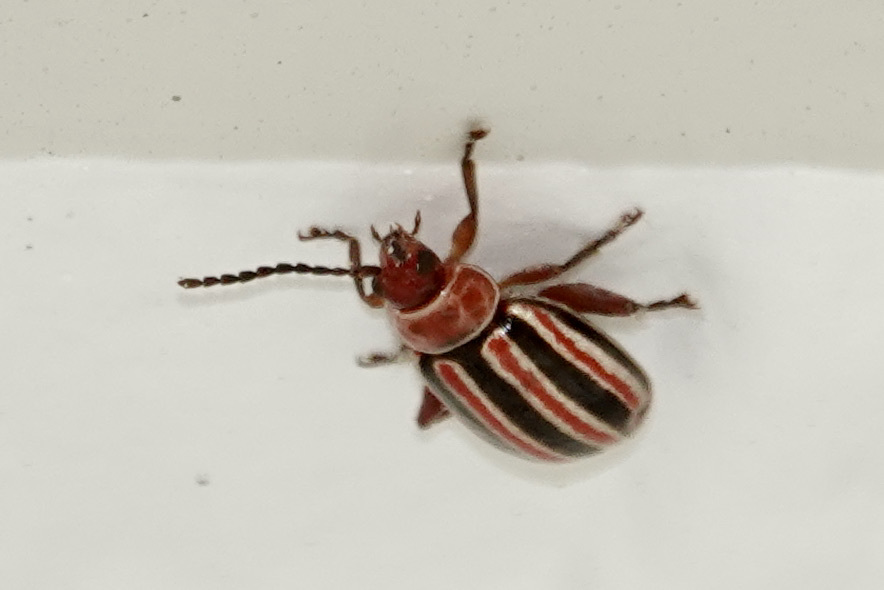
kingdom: Animalia
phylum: Arthropoda
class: Insecta
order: Coleoptera
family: Chrysomelidae
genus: Disonycha
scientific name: Disonycha admirabila
